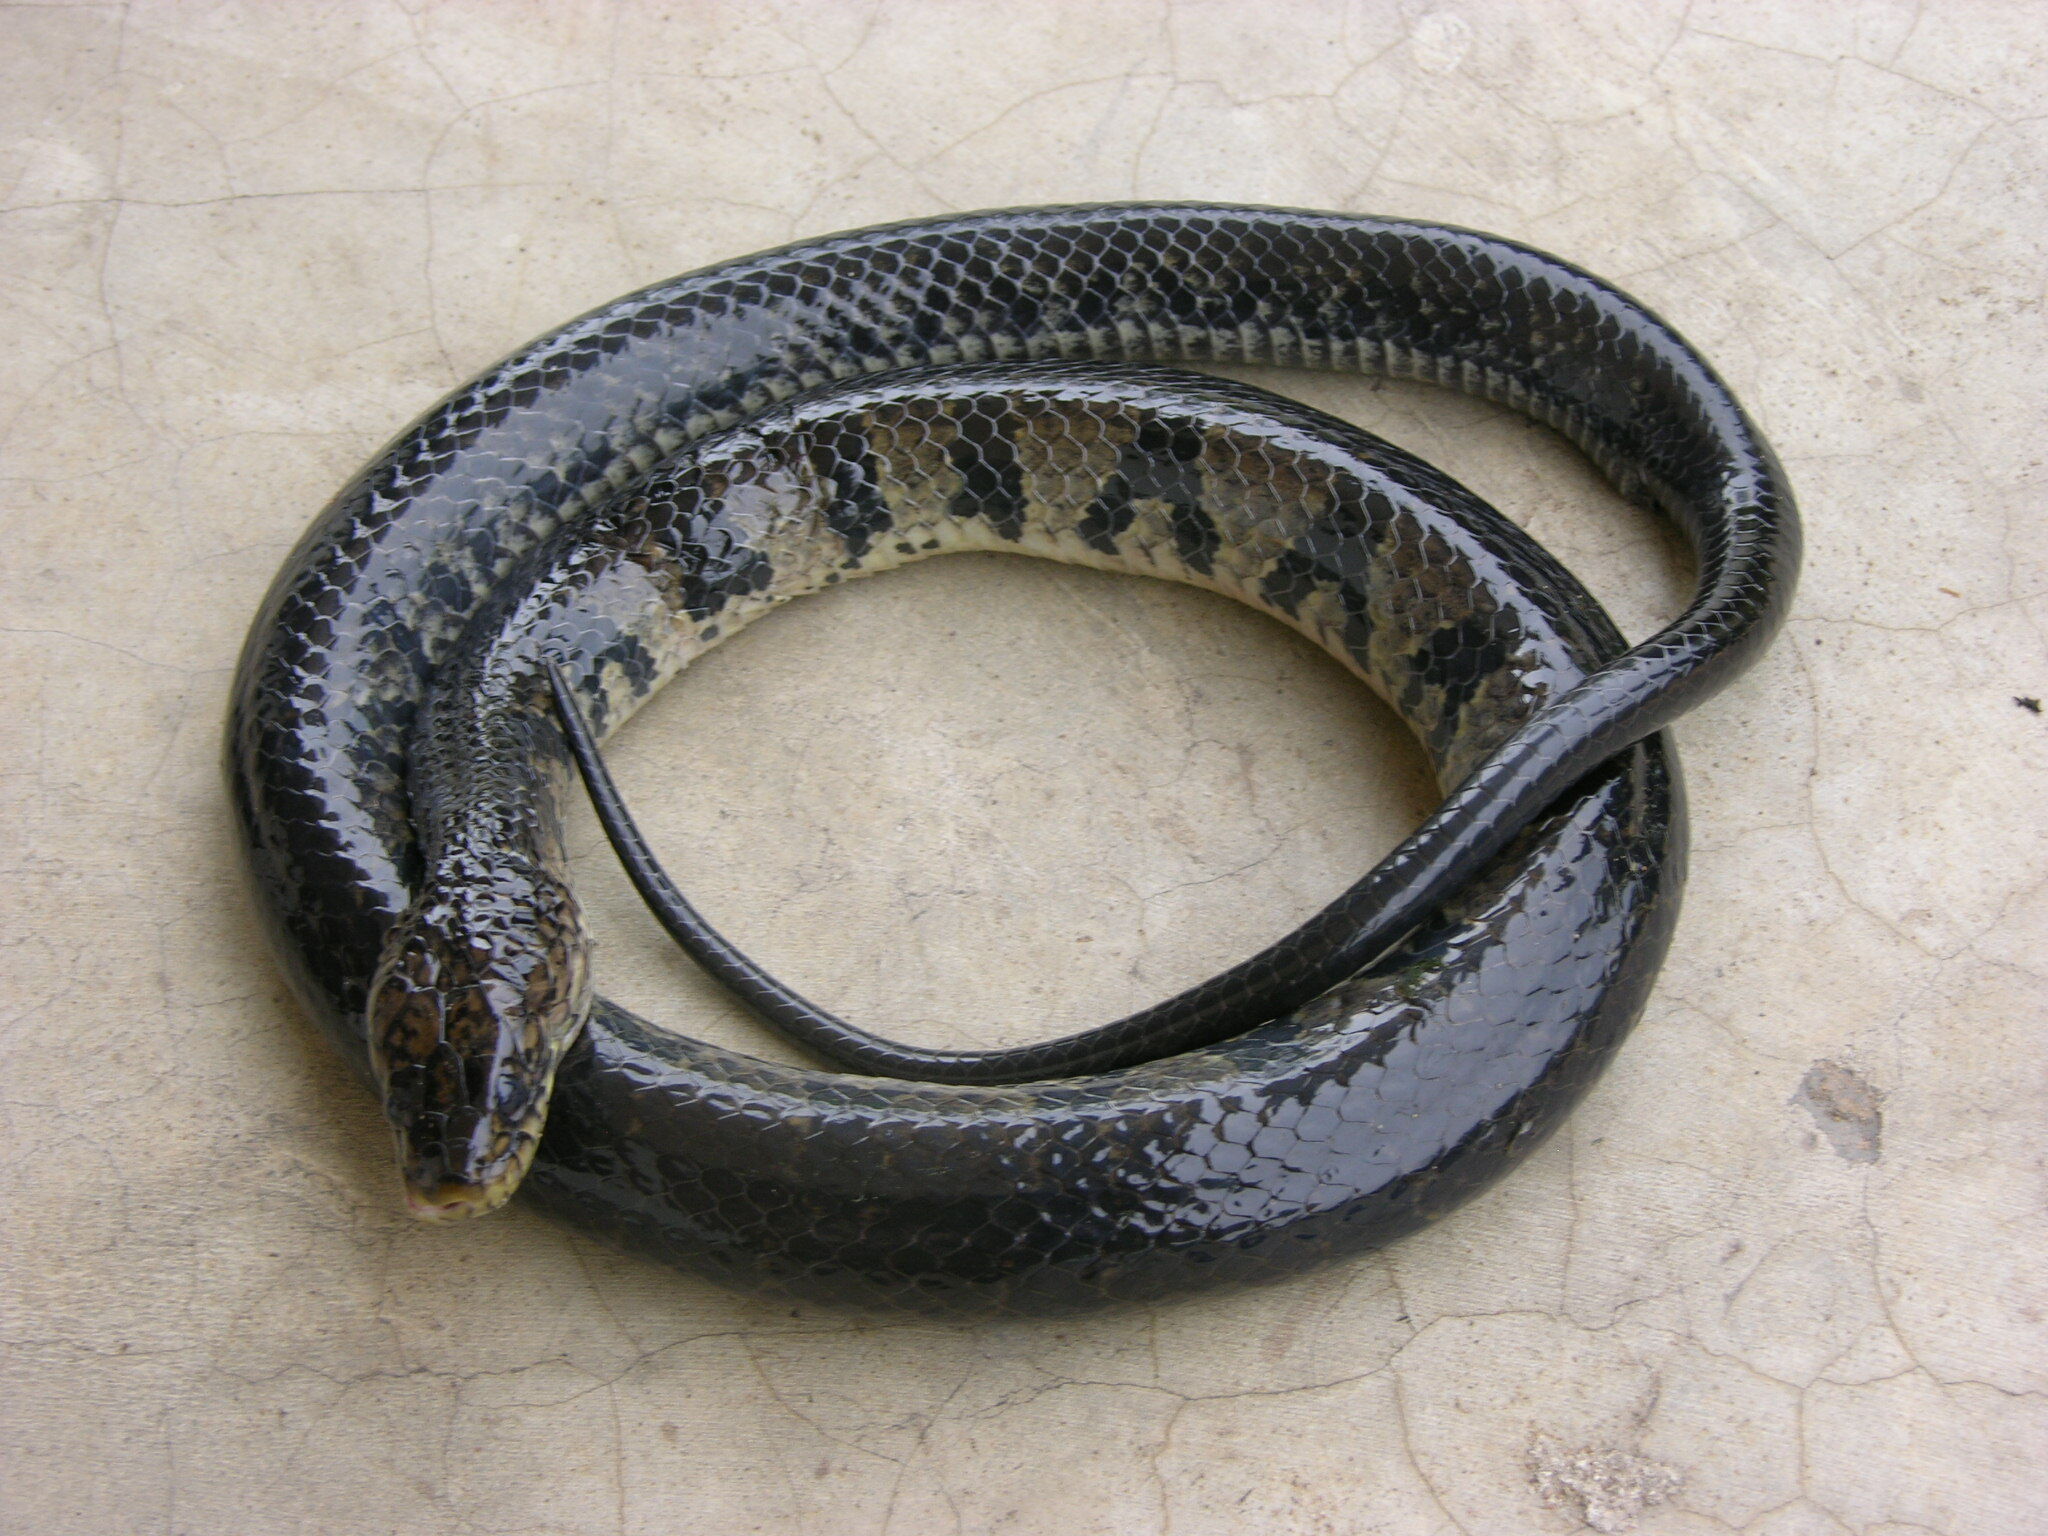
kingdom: Animalia
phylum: Chordata
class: Squamata
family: Colubridae
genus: Grayia
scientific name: Grayia ornata
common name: Ornate african water snake
